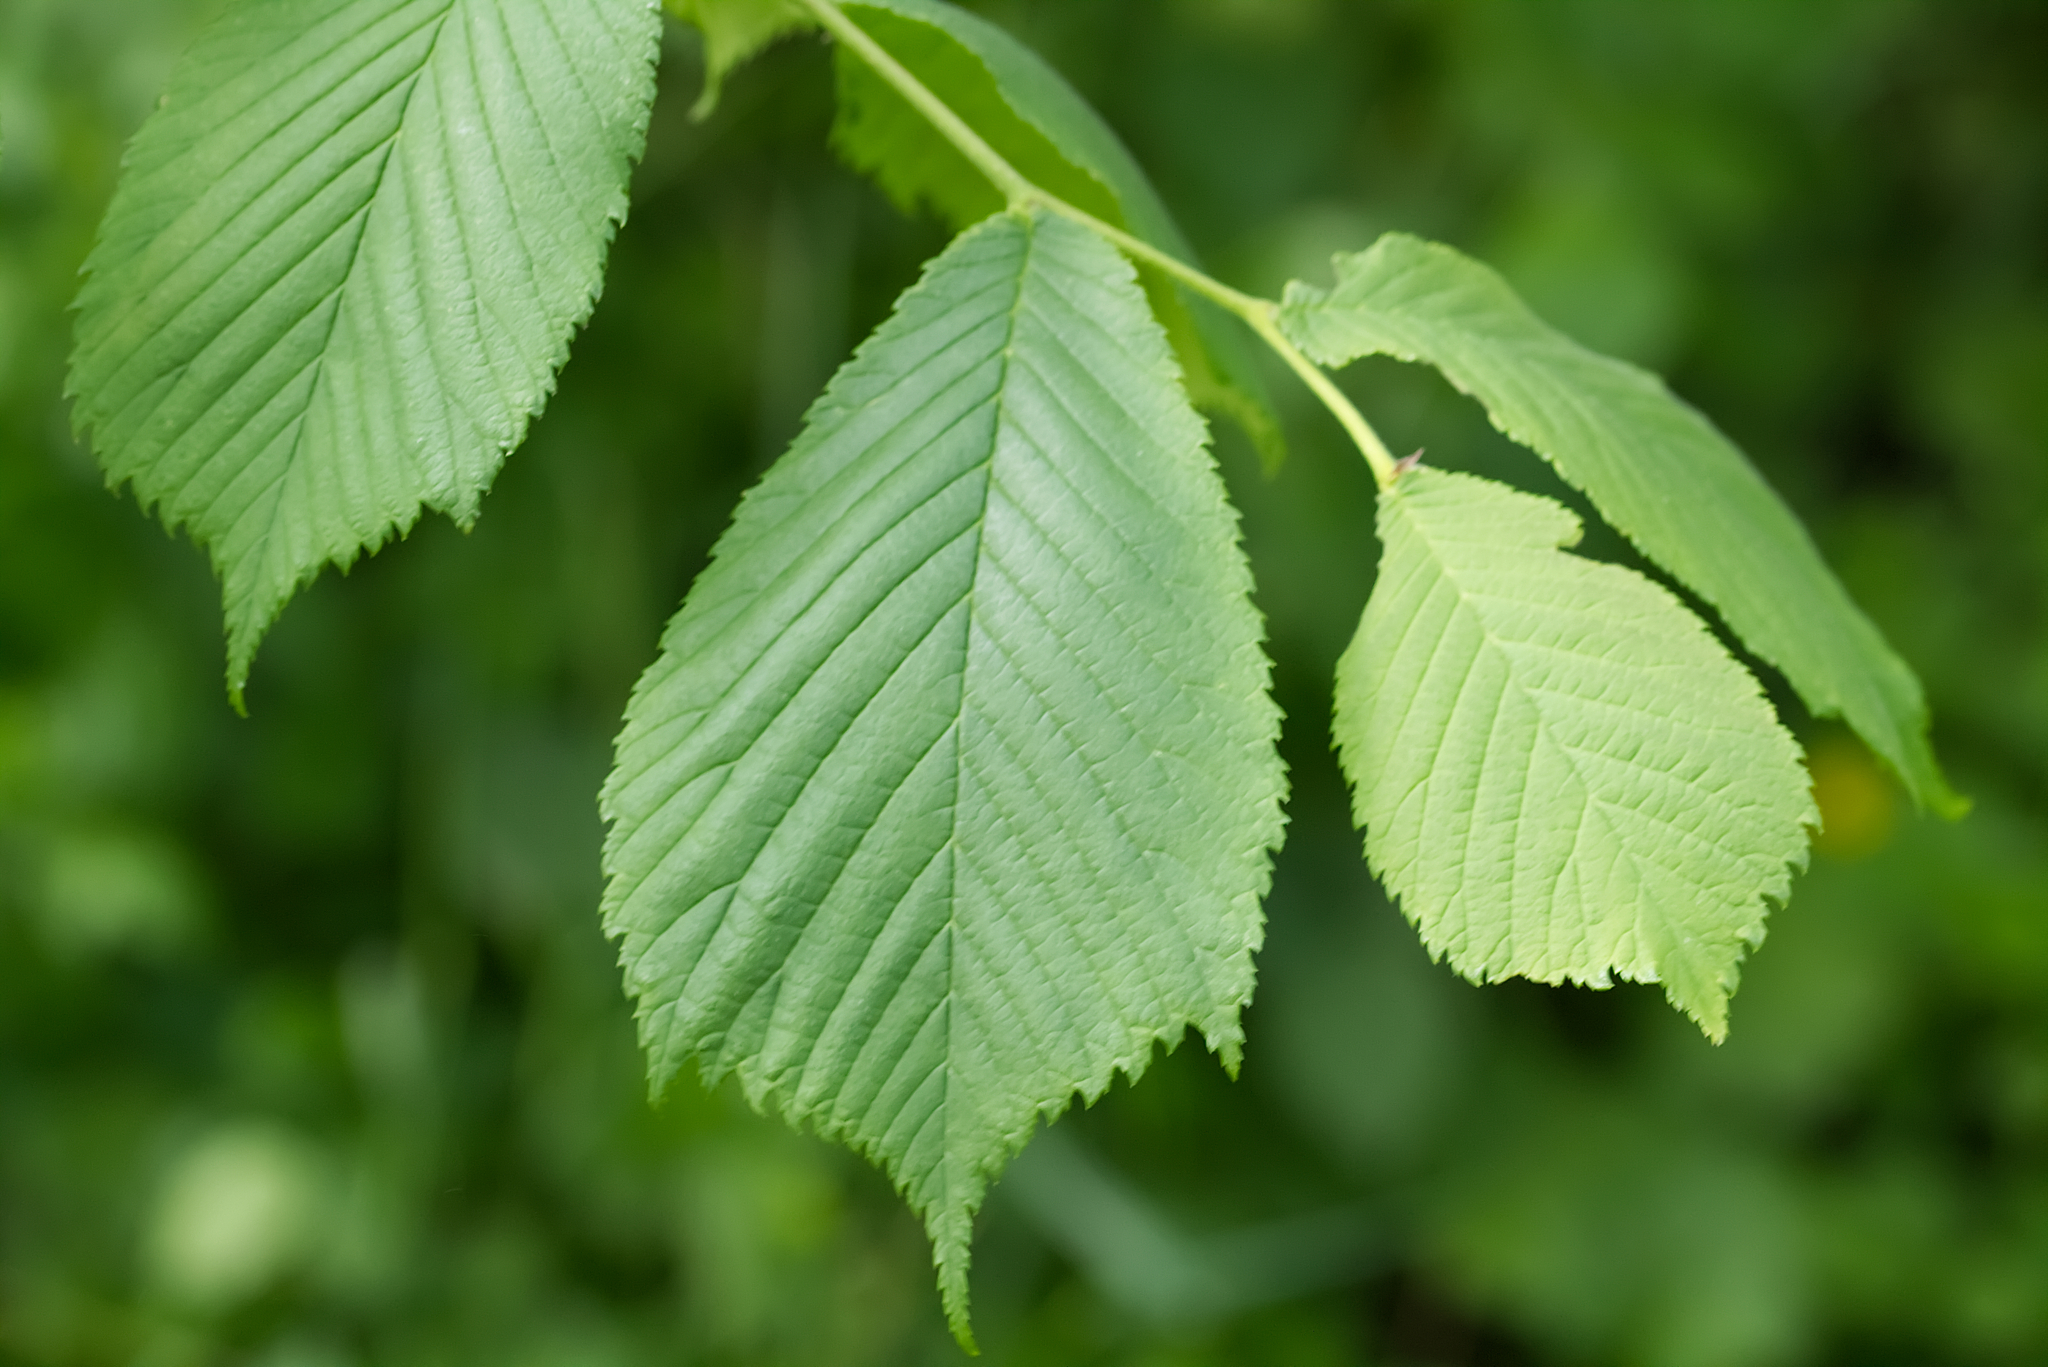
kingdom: Plantae
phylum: Tracheophyta
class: Magnoliopsida
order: Rosales
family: Ulmaceae
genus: Ulmus
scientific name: Ulmus glabra
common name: Wych elm
